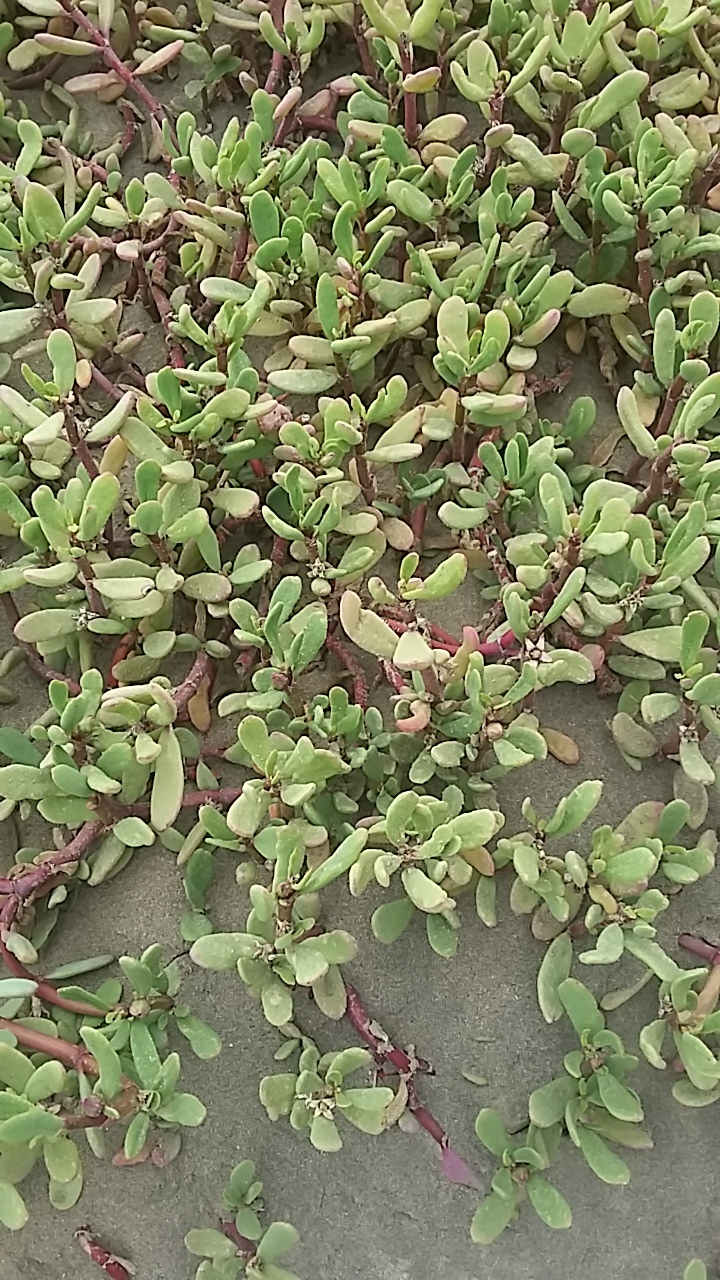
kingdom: Plantae
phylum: Tracheophyta
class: Magnoliopsida
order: Caryophyllales
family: Aizoaceae
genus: Sesuvium
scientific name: Sesuvium portulacastrum
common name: Sea-purslane
